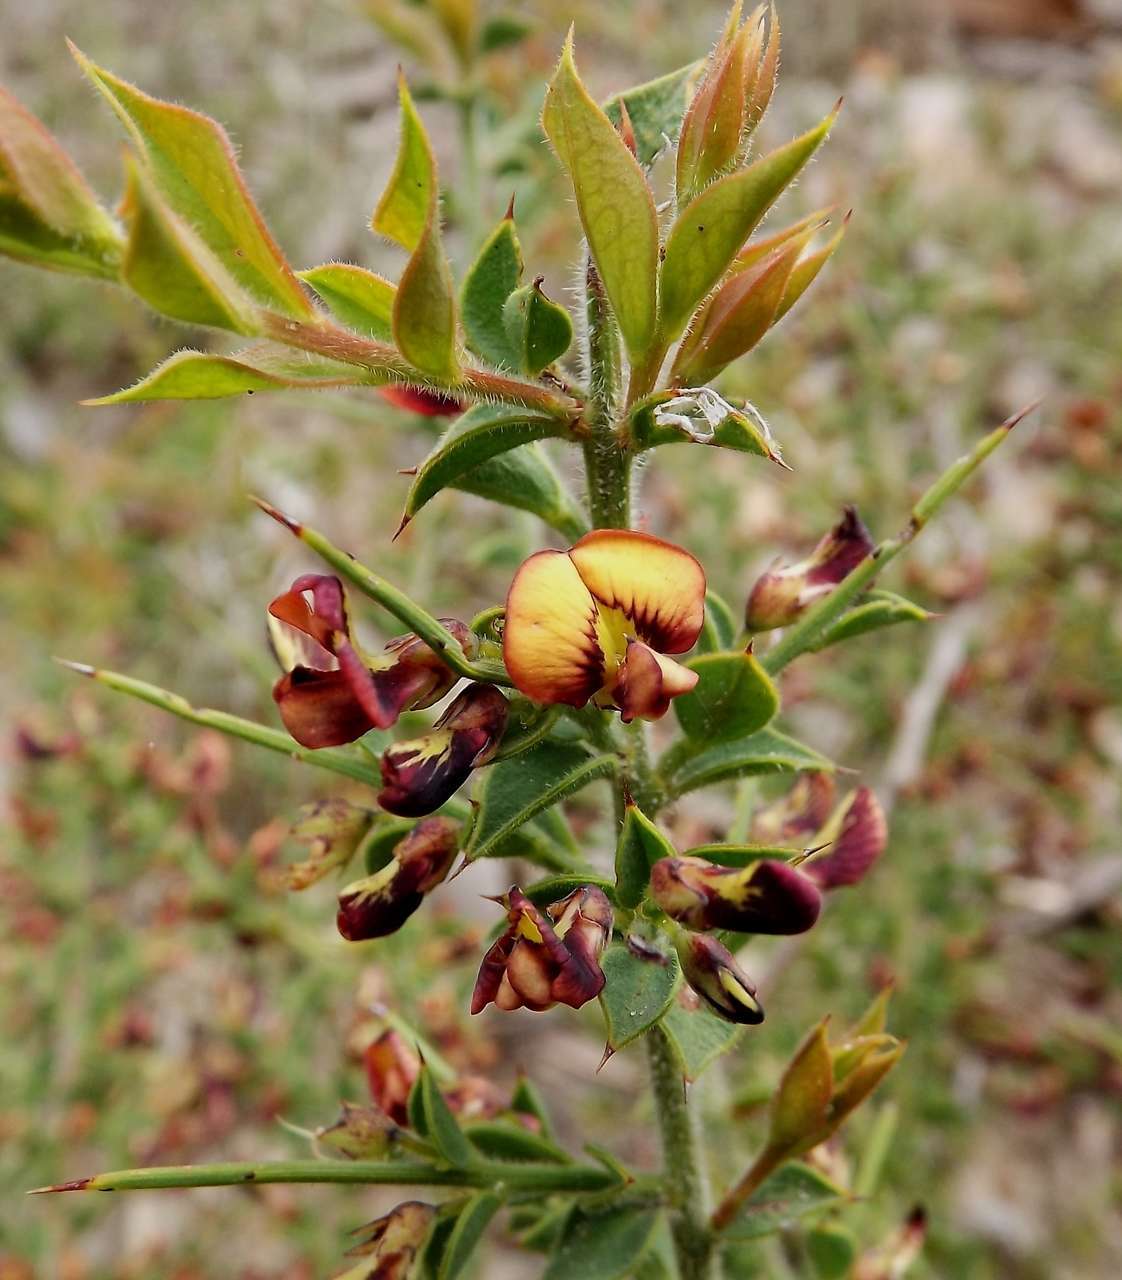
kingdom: Plantae
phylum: Tracheophyta
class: Magnoliopsida
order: Fabales
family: Fabaceae
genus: Daviesia
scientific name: Daviesia arenaria
